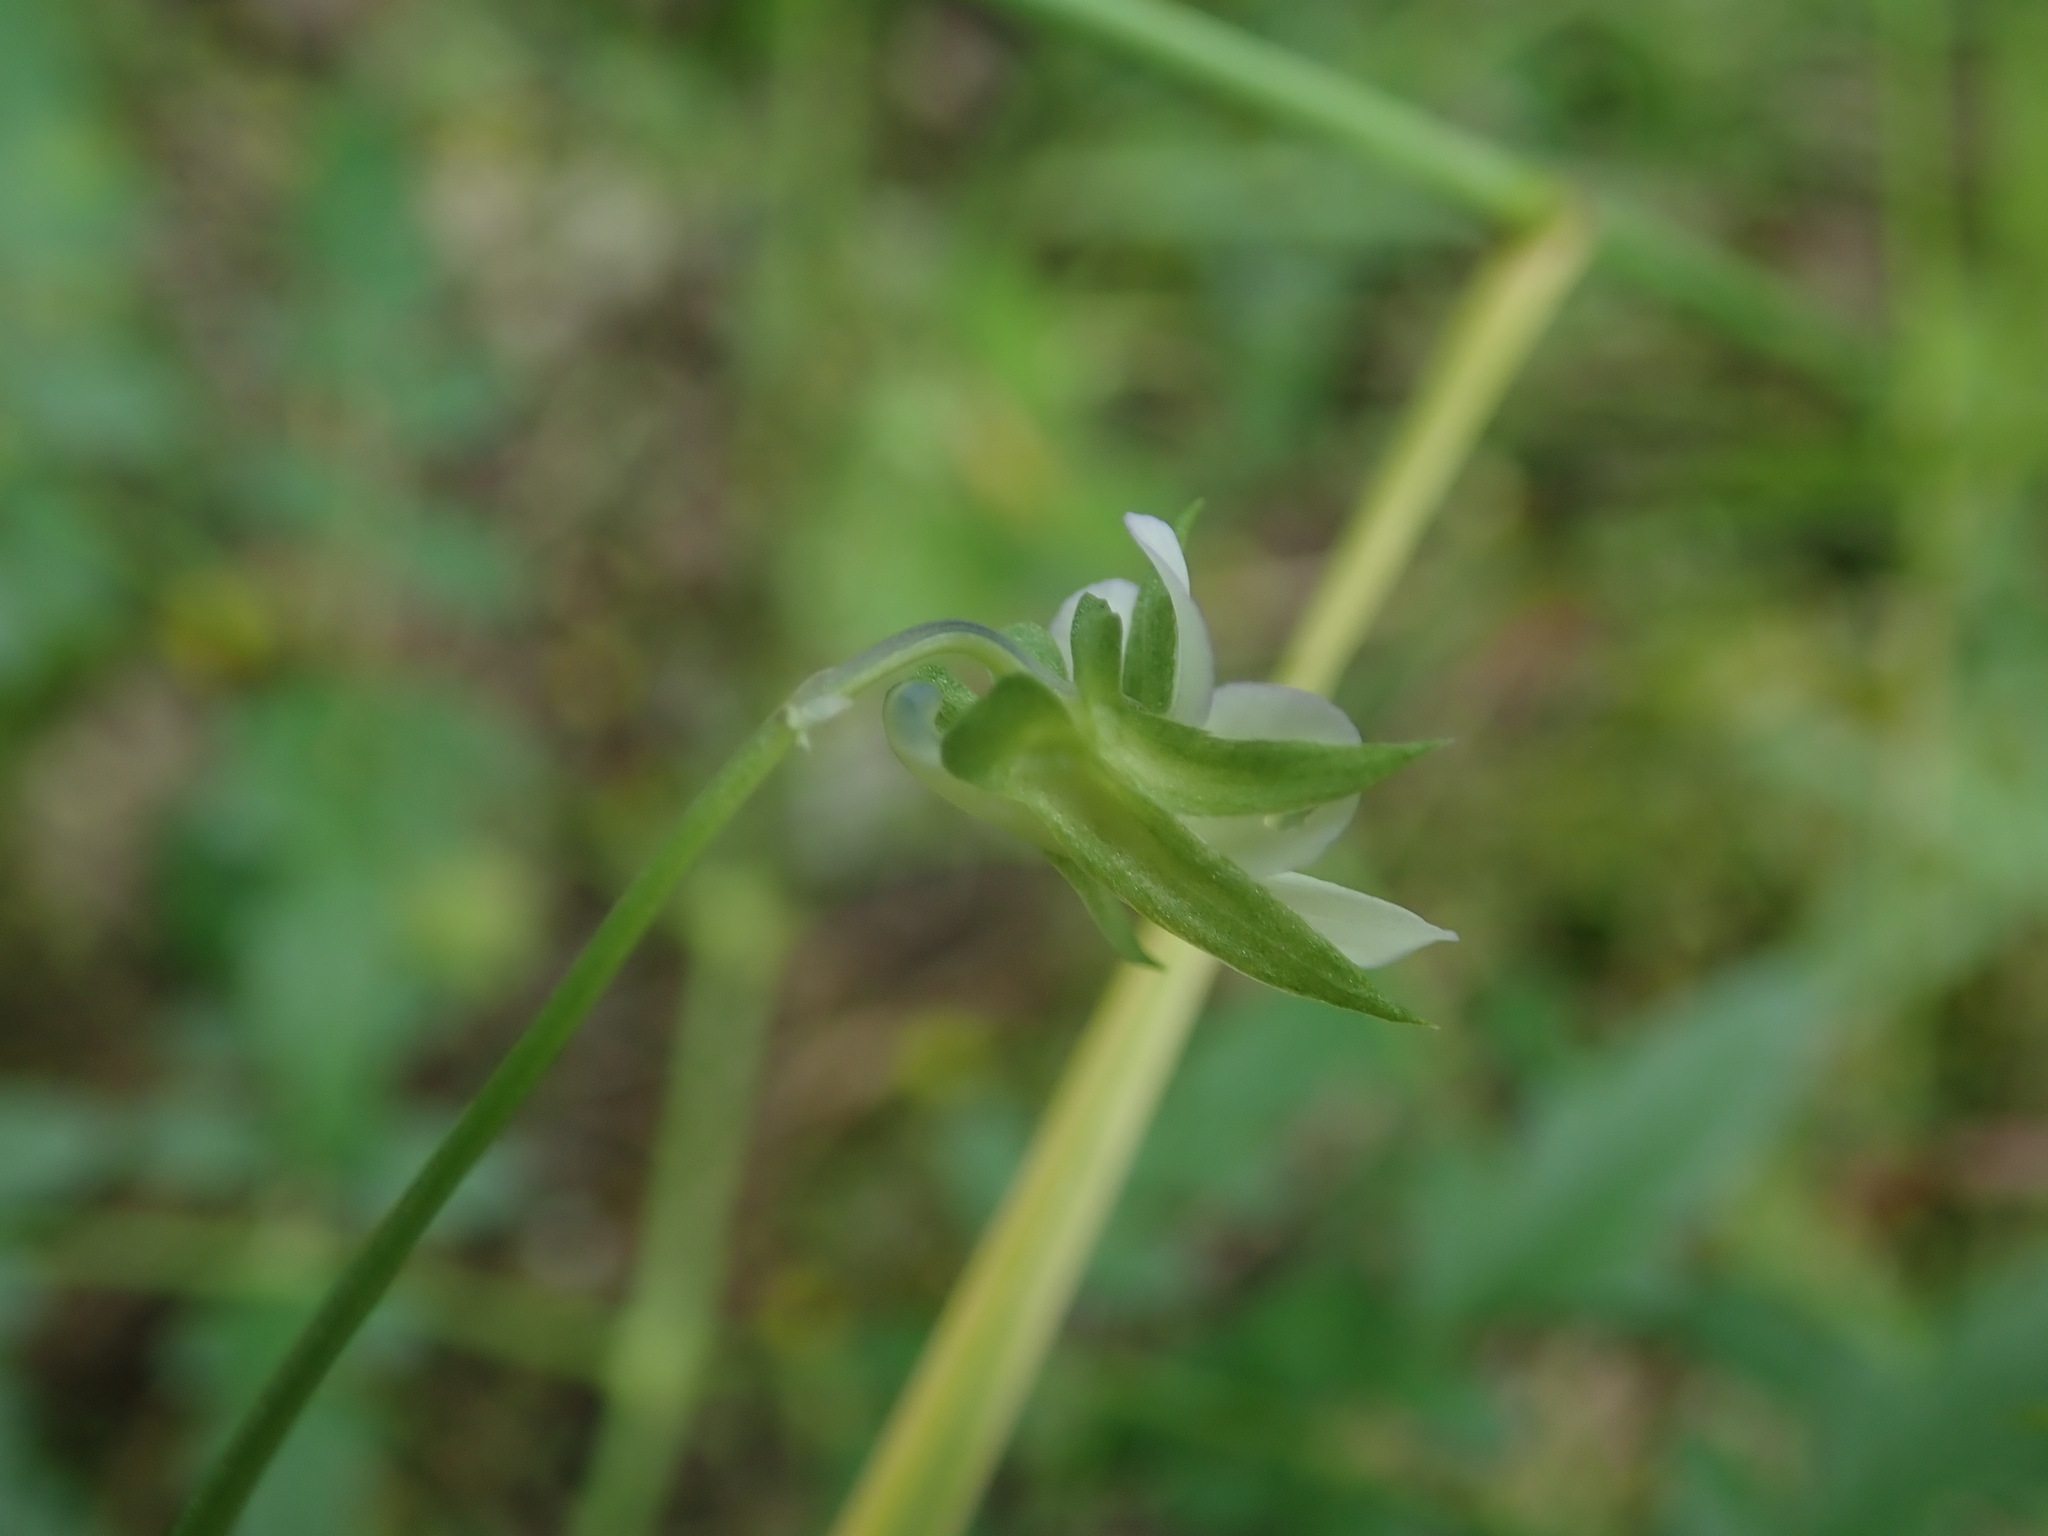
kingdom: Plantae
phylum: Tracheophyta
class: Magnoliopsida
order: Malpighiales
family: Violaceae
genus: Viola
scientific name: Viola arvensis
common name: Field pansy
